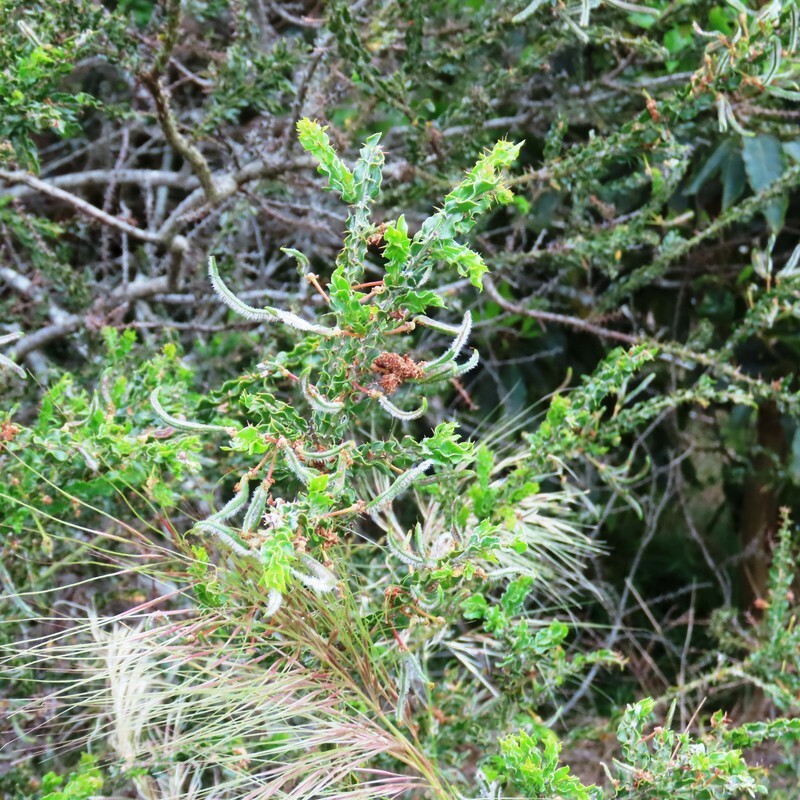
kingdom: Plantae
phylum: Tracheophyta
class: Magnoliopsida
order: Fabales
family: Fabaceae
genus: Acacia
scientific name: Acacia paradoxa
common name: Paradox acacia
